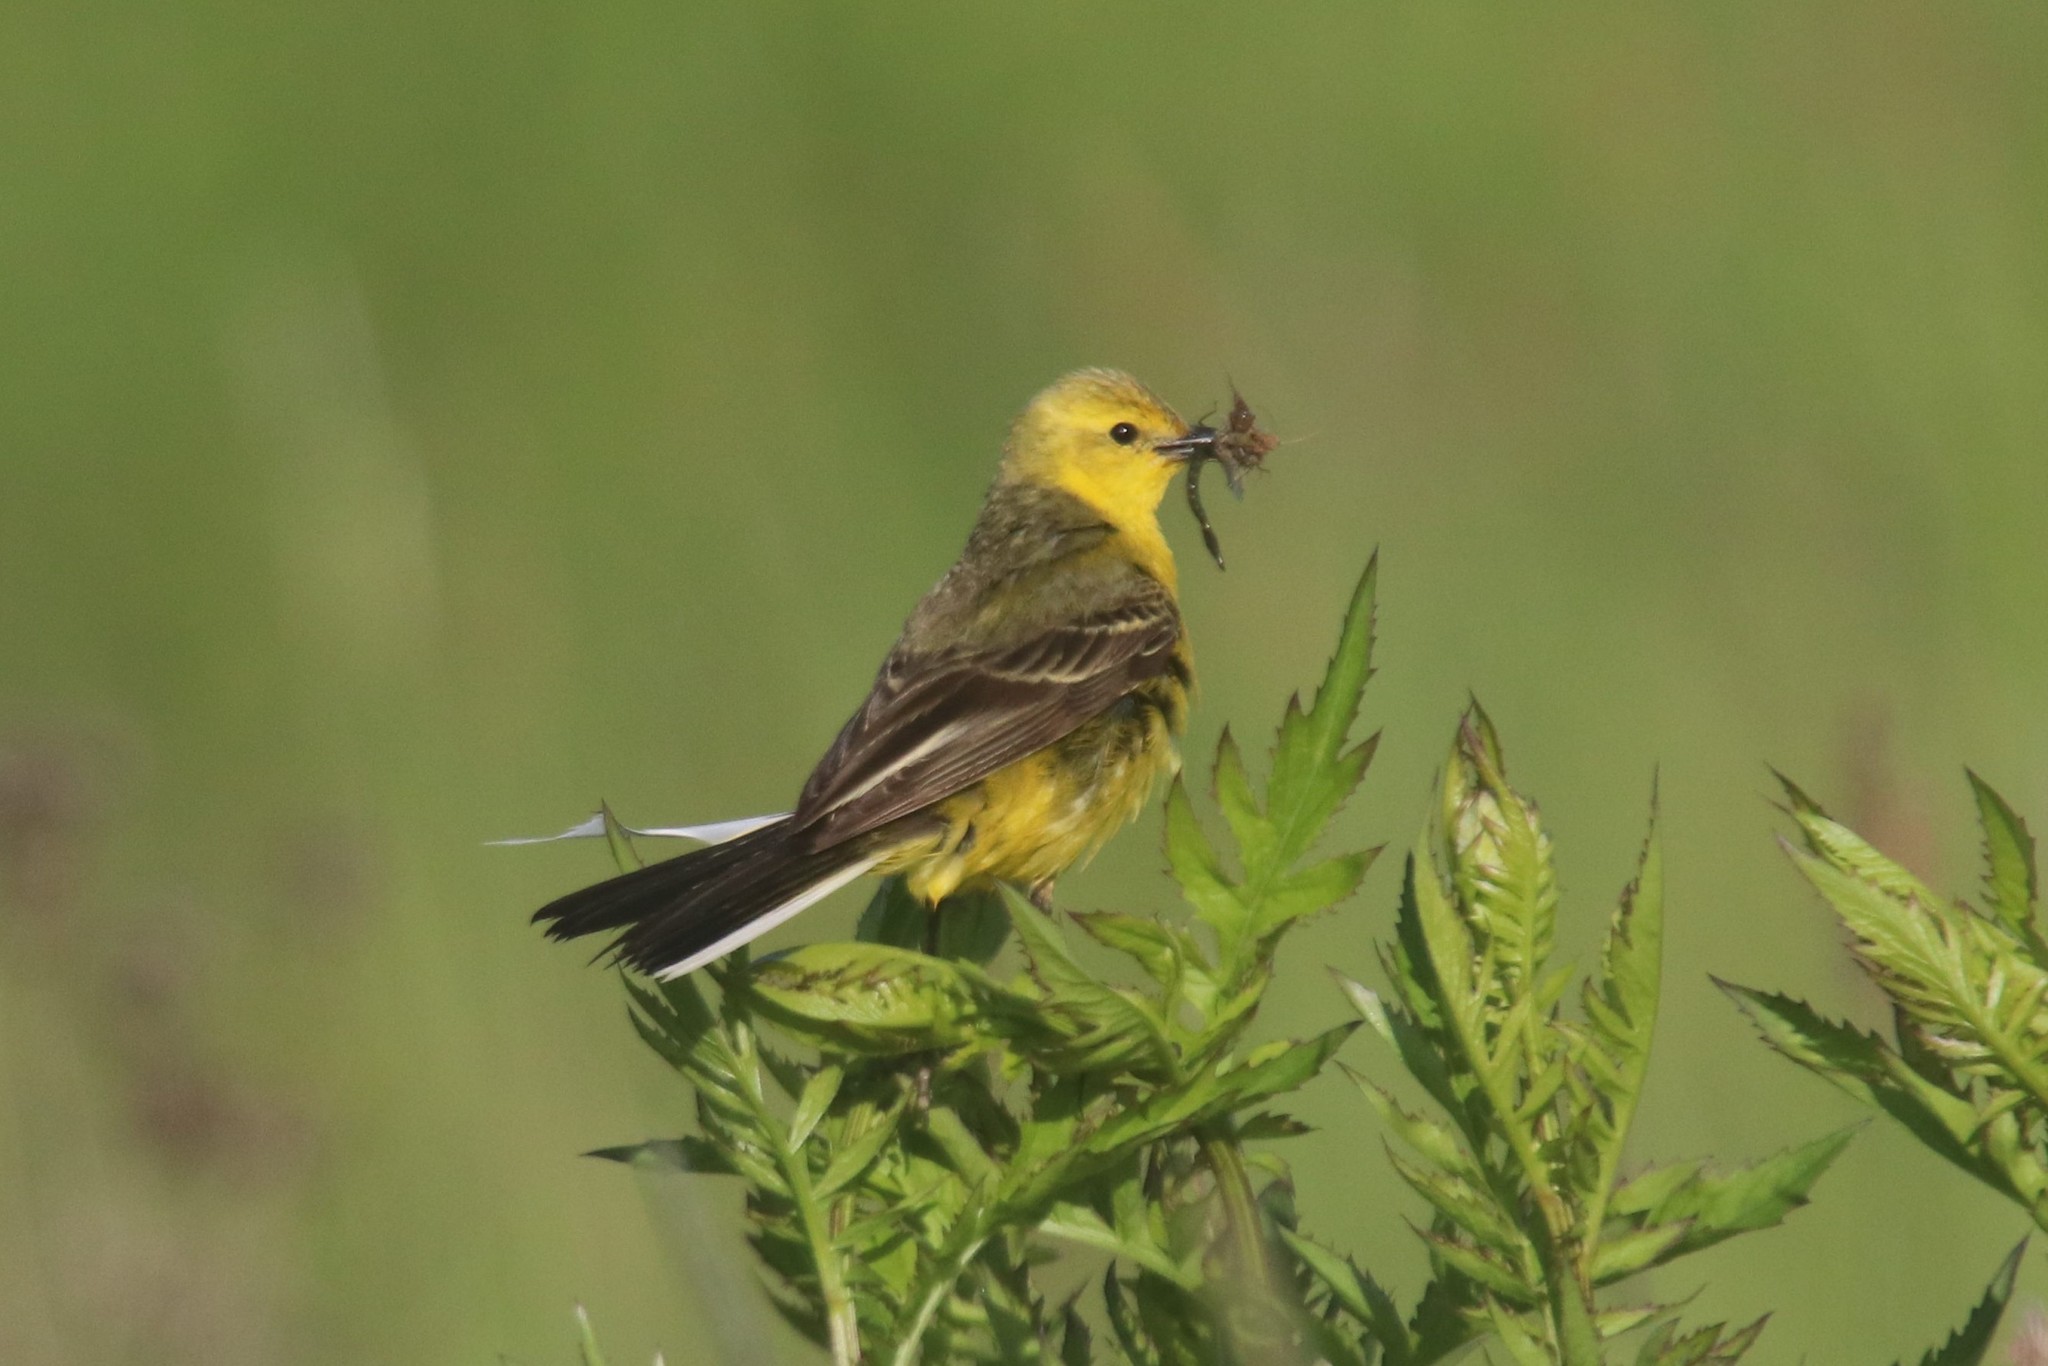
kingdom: Animalia
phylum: Chordata
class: Aves
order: Passeriformes
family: Motacillidae
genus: Motacilla
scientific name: Motacilla flava
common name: Western yellow wagtail
